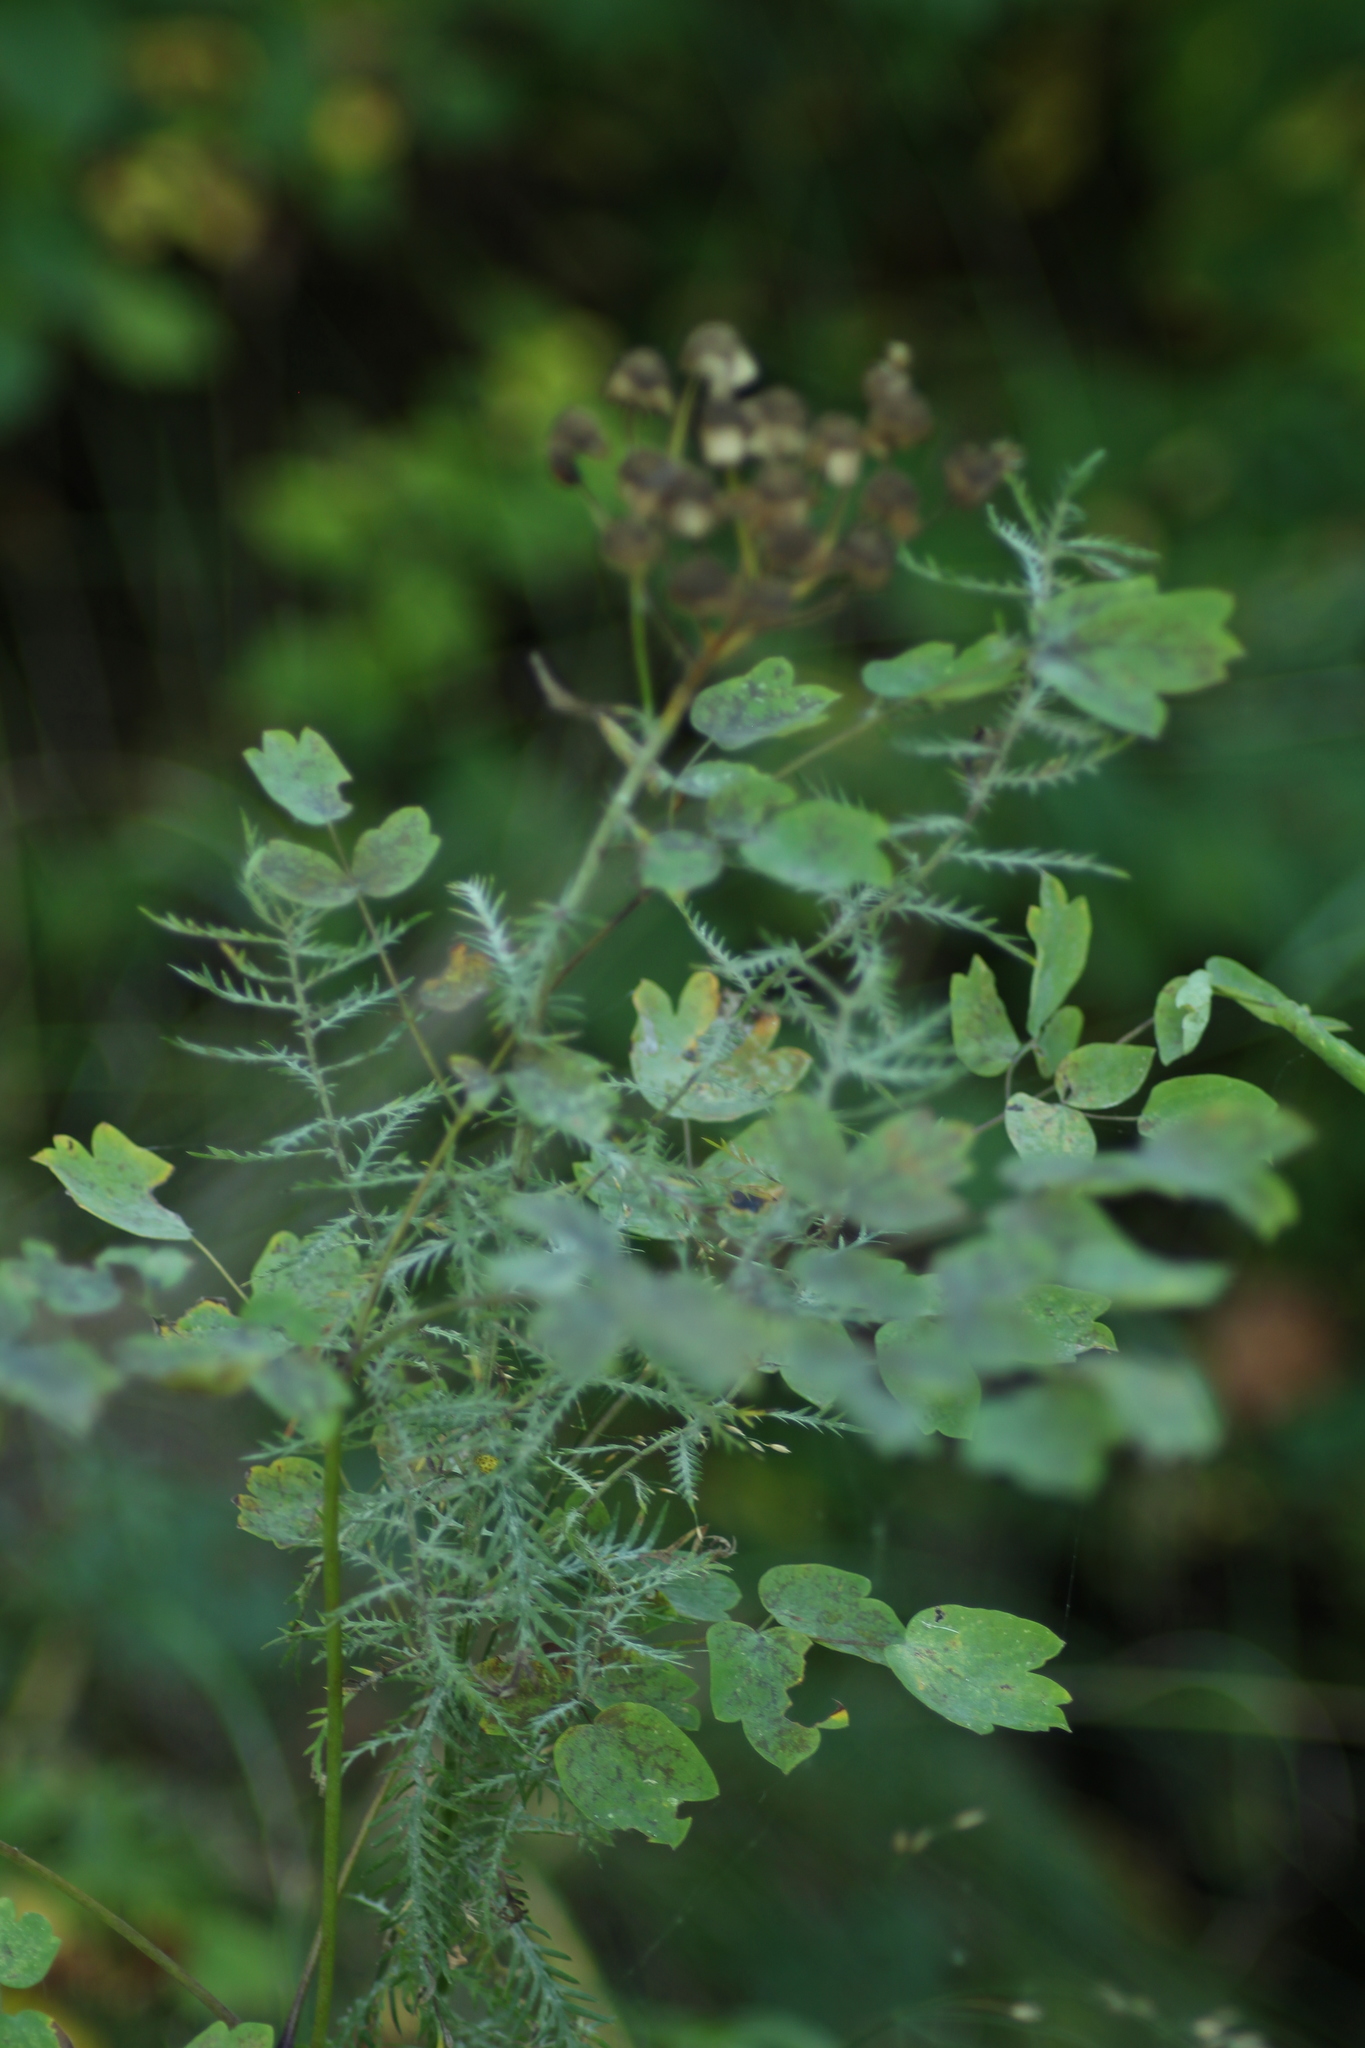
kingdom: Plantae
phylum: Tracheophyta
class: Magnoliopsida
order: Ranunculales
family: Ranunculaceae
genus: Thalictrum
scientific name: Thalictrum minus
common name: Lesser meadow-rue
